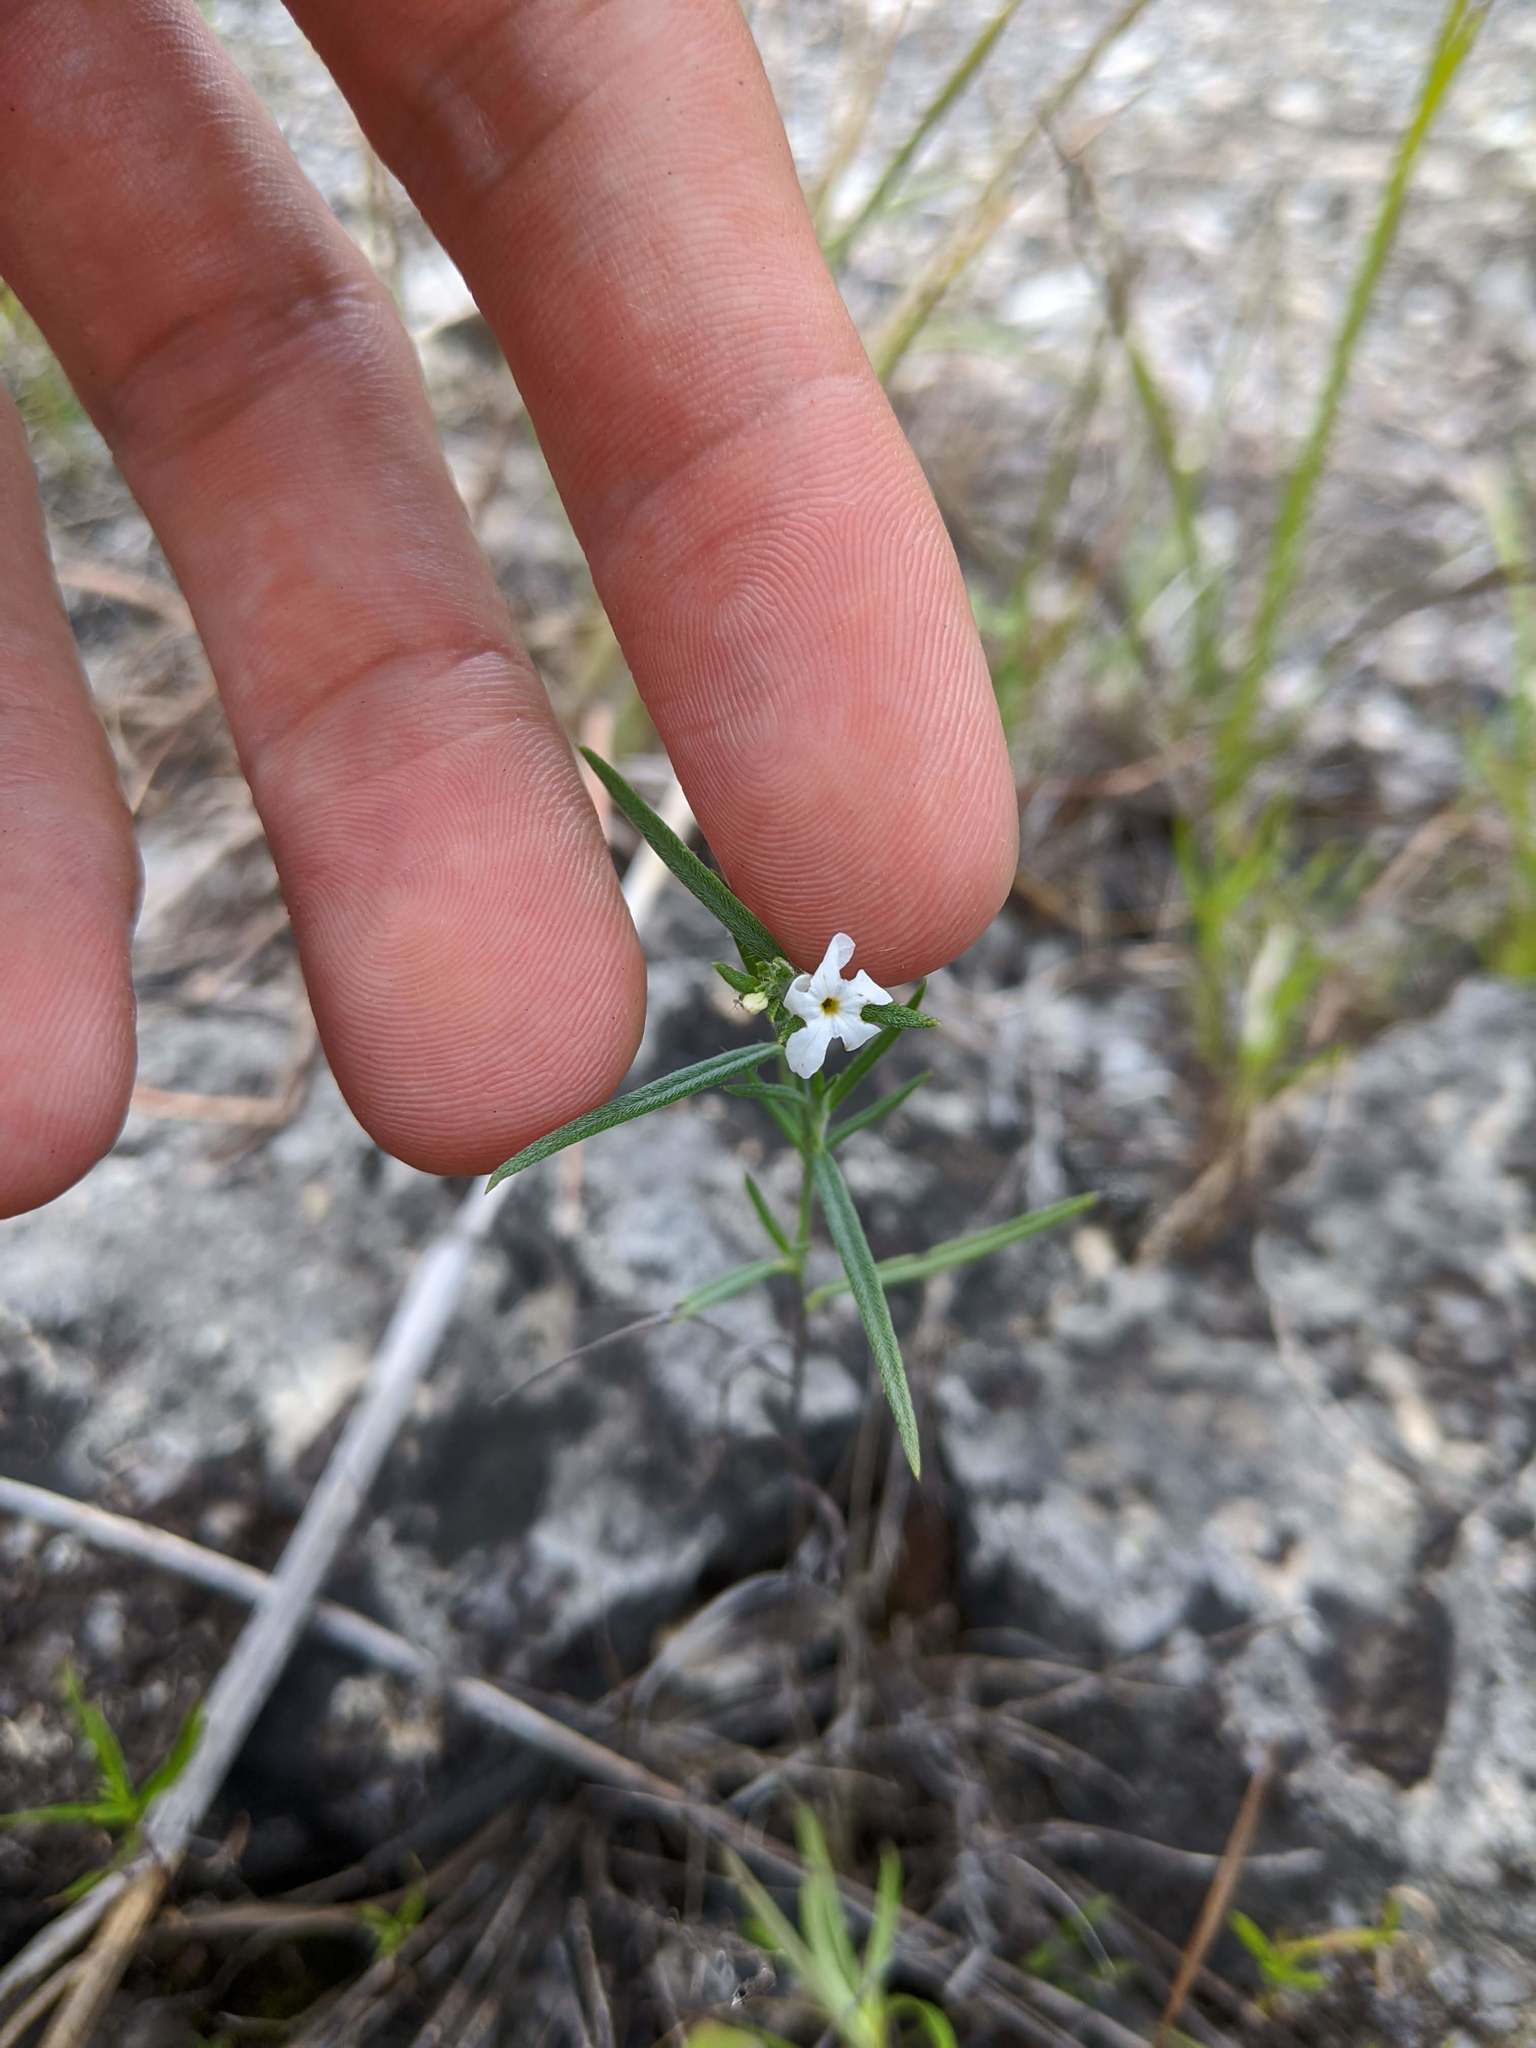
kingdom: Plantae
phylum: Tracheophyta
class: Magnoliopsida
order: Boraginales
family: Heliotropiaceae
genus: Euploca
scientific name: Euploca tenella
